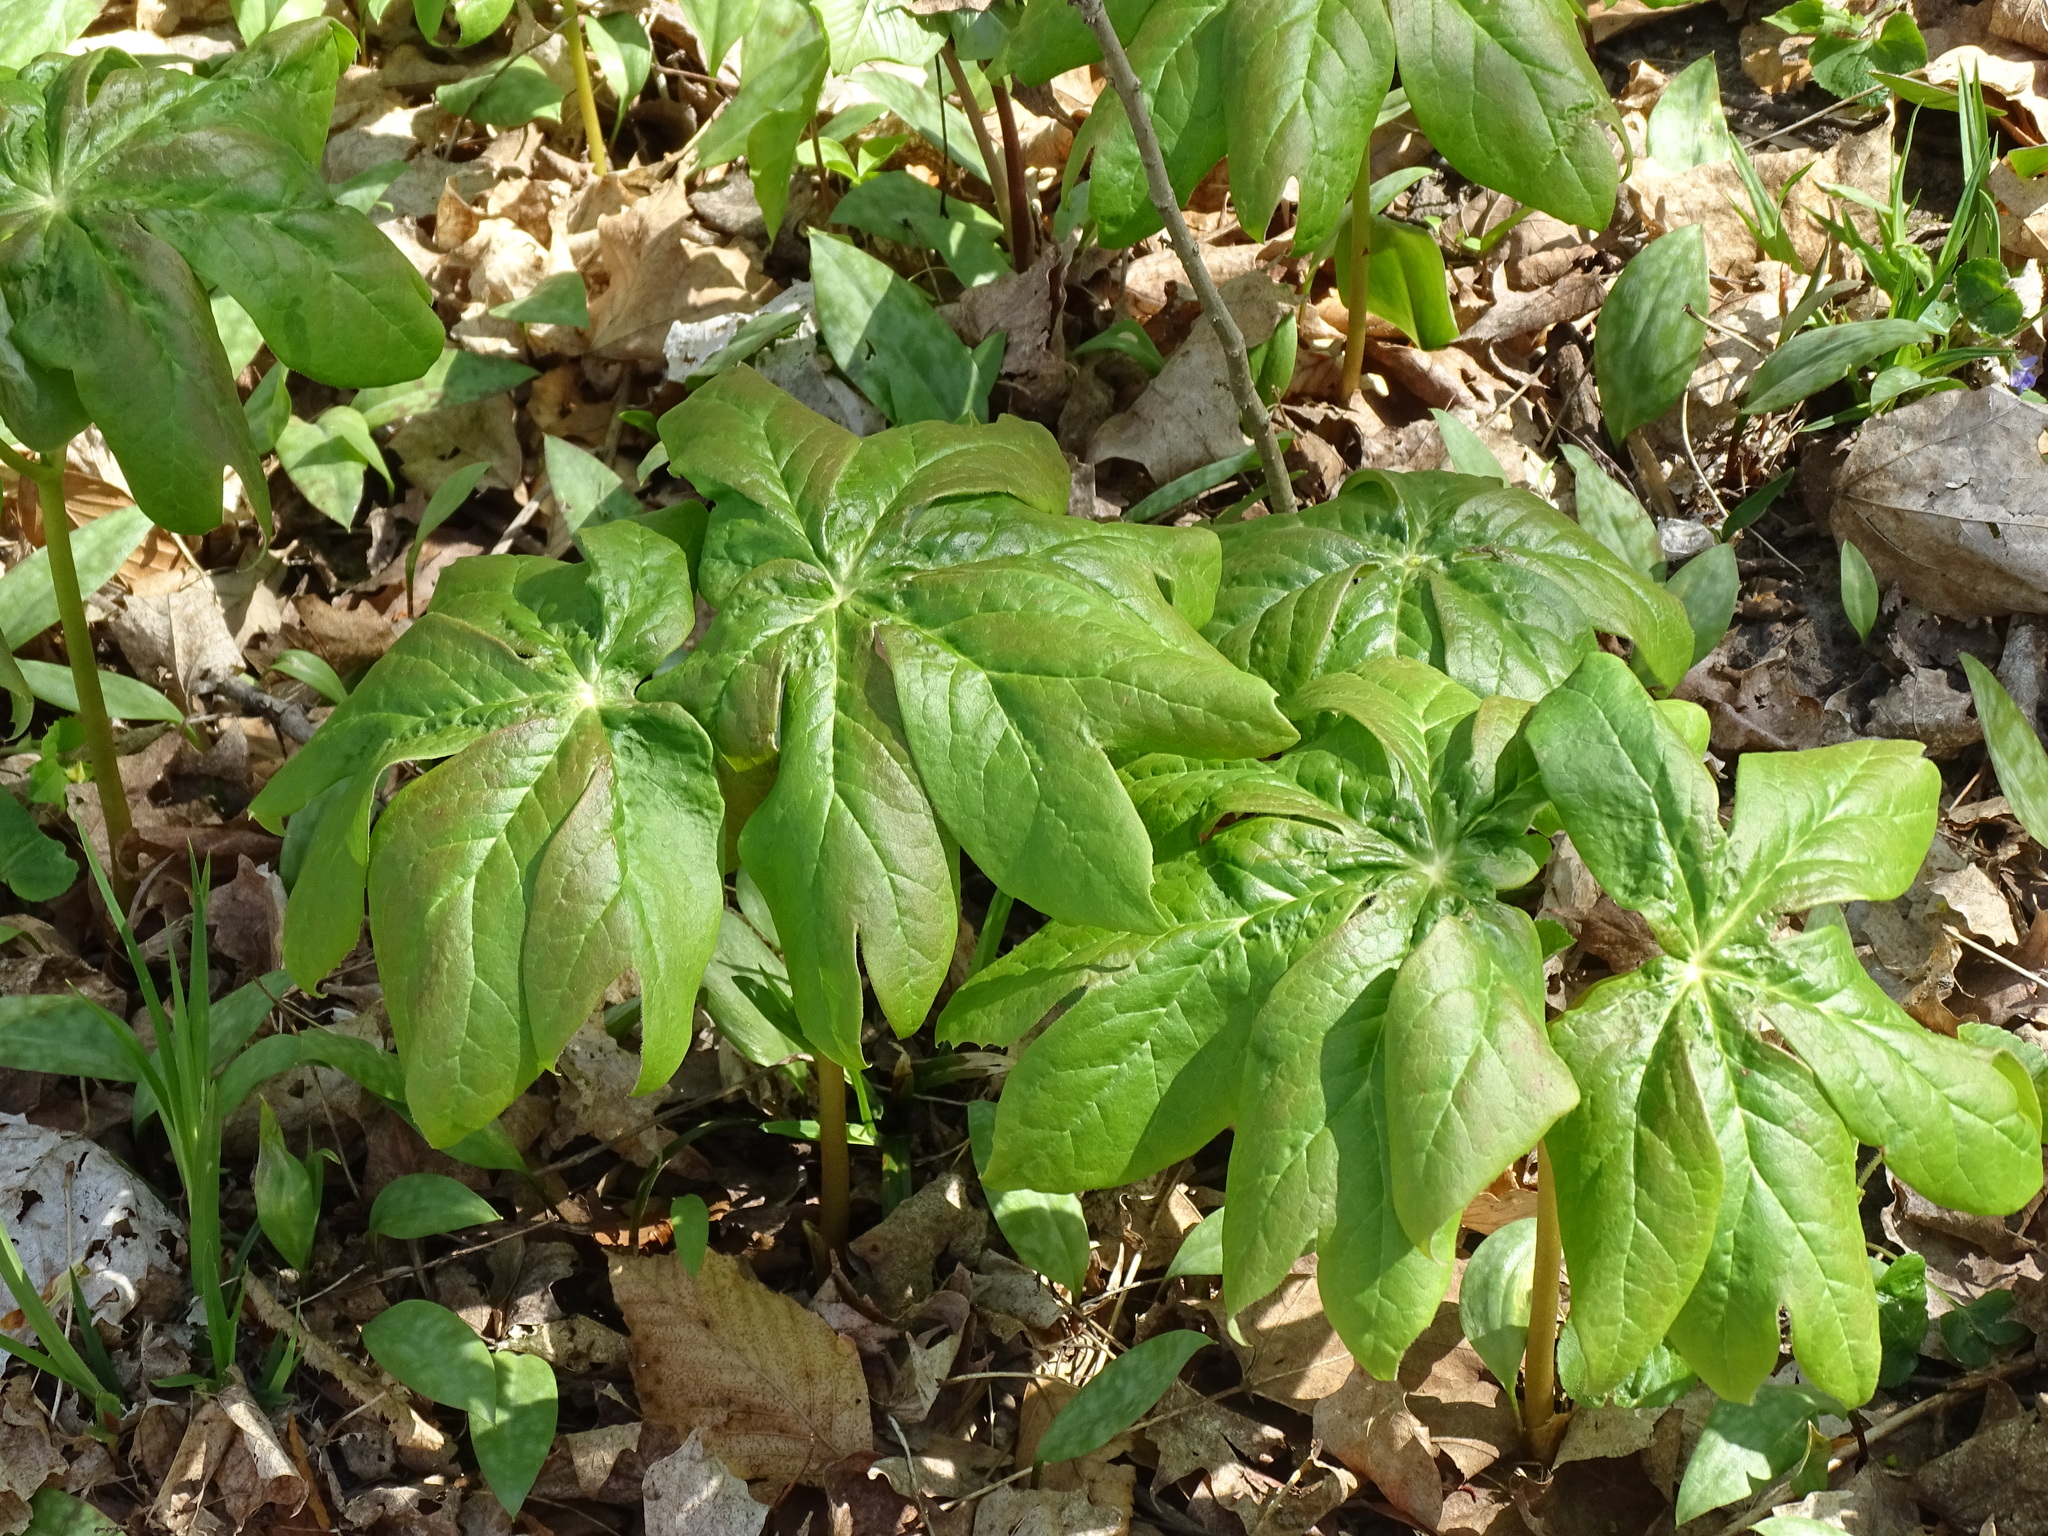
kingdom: Plantae
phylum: Tracheophyta
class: Magnoliopsida
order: Ranunculales
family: Berberidaceae
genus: Podophyllum
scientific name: Podophyllum peltatum
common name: Wild mandrake
